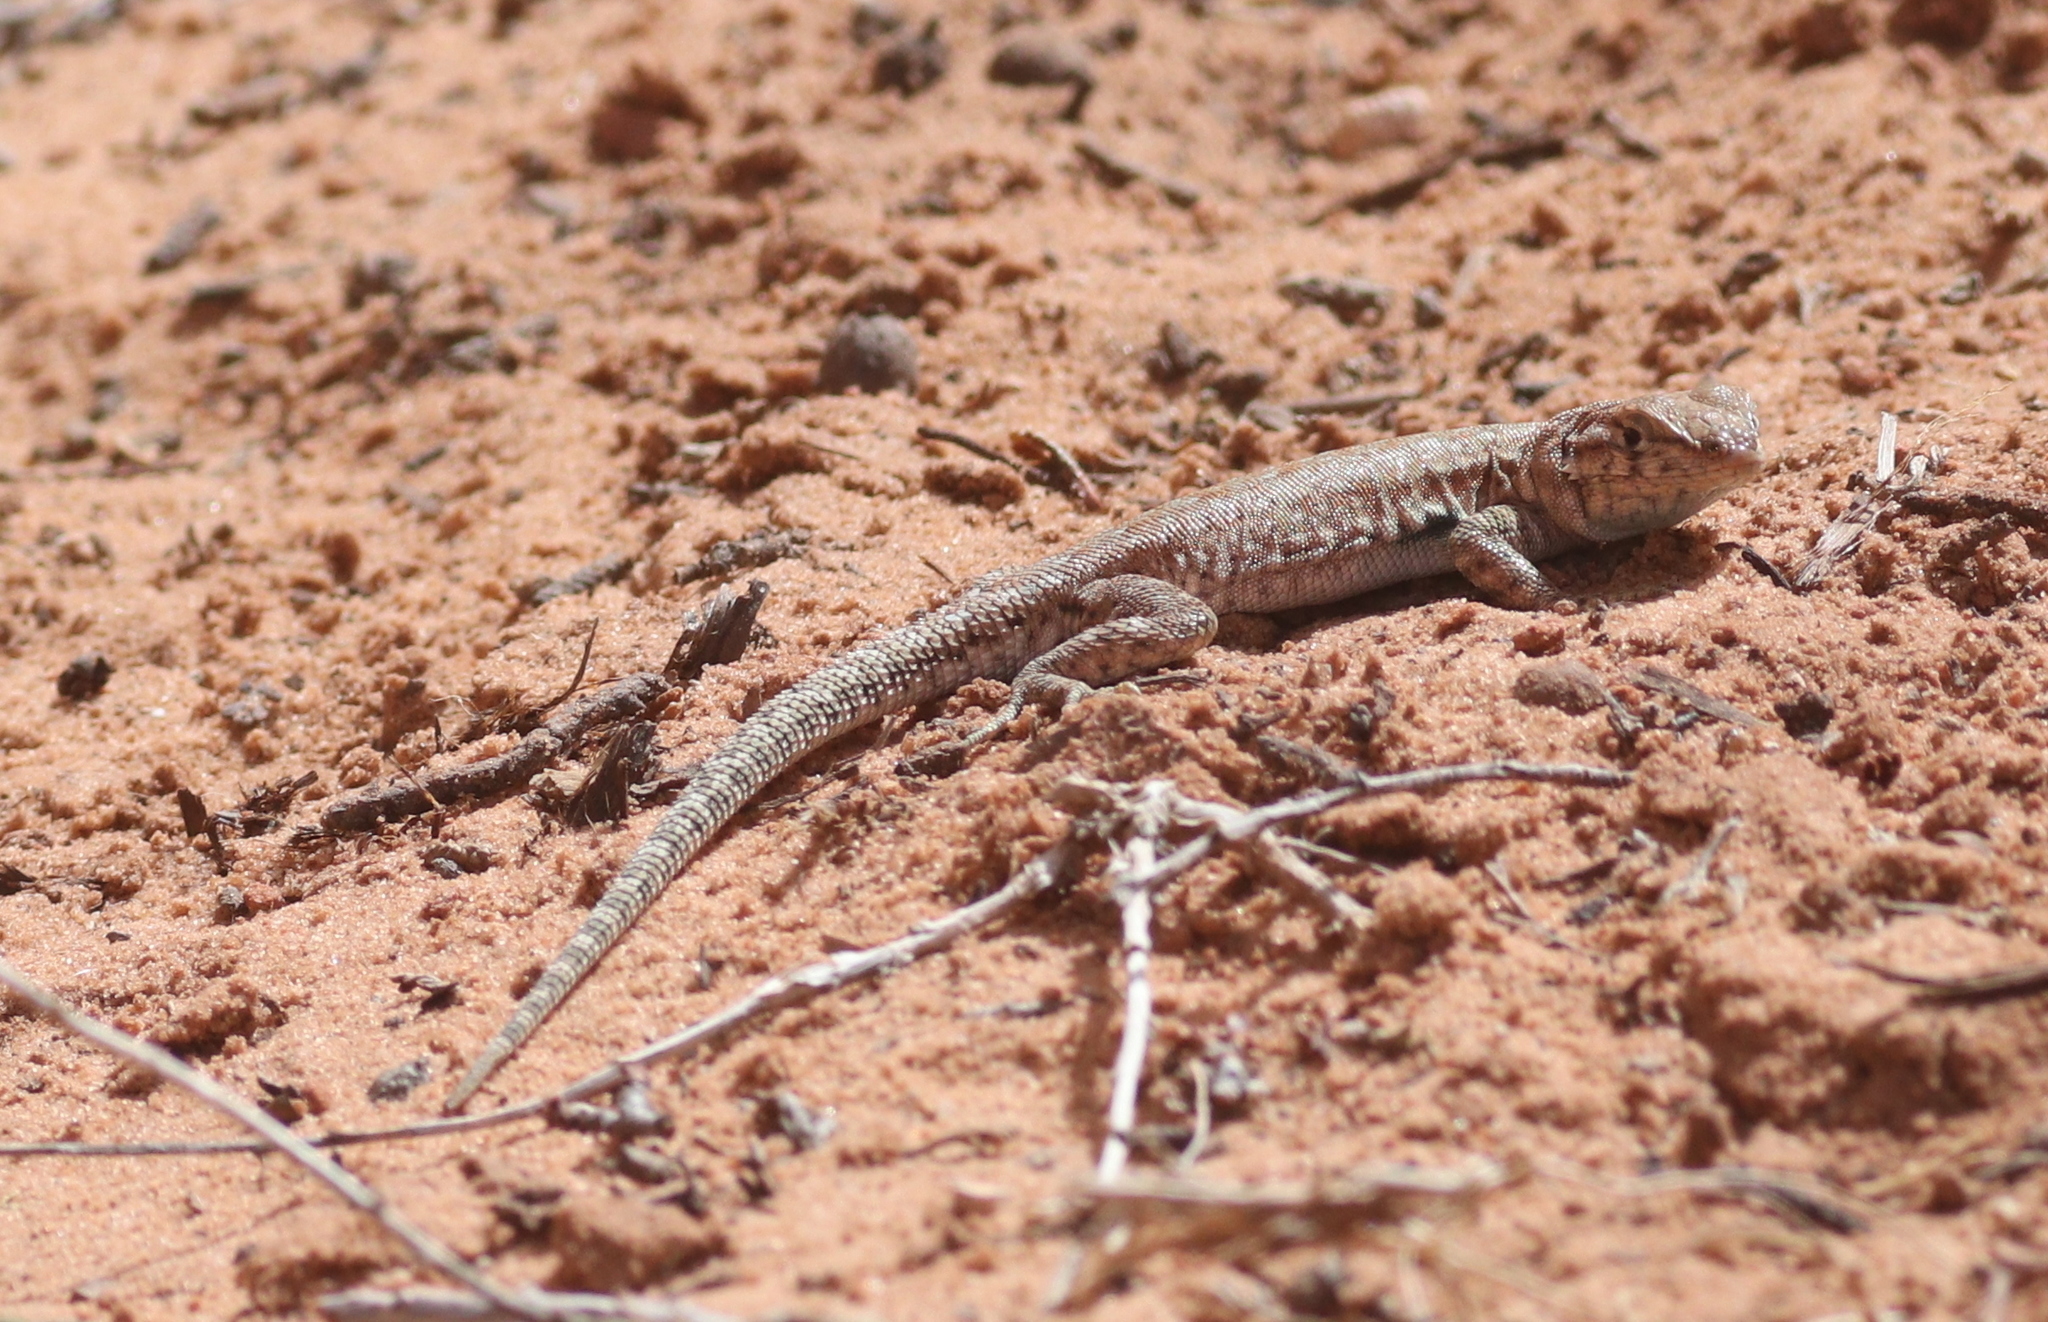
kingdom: Animalia
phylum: Chordata
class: Squamata
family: Phrynosomatidae
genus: Uta
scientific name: Uta stansburiana
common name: Side-blotched lizard
